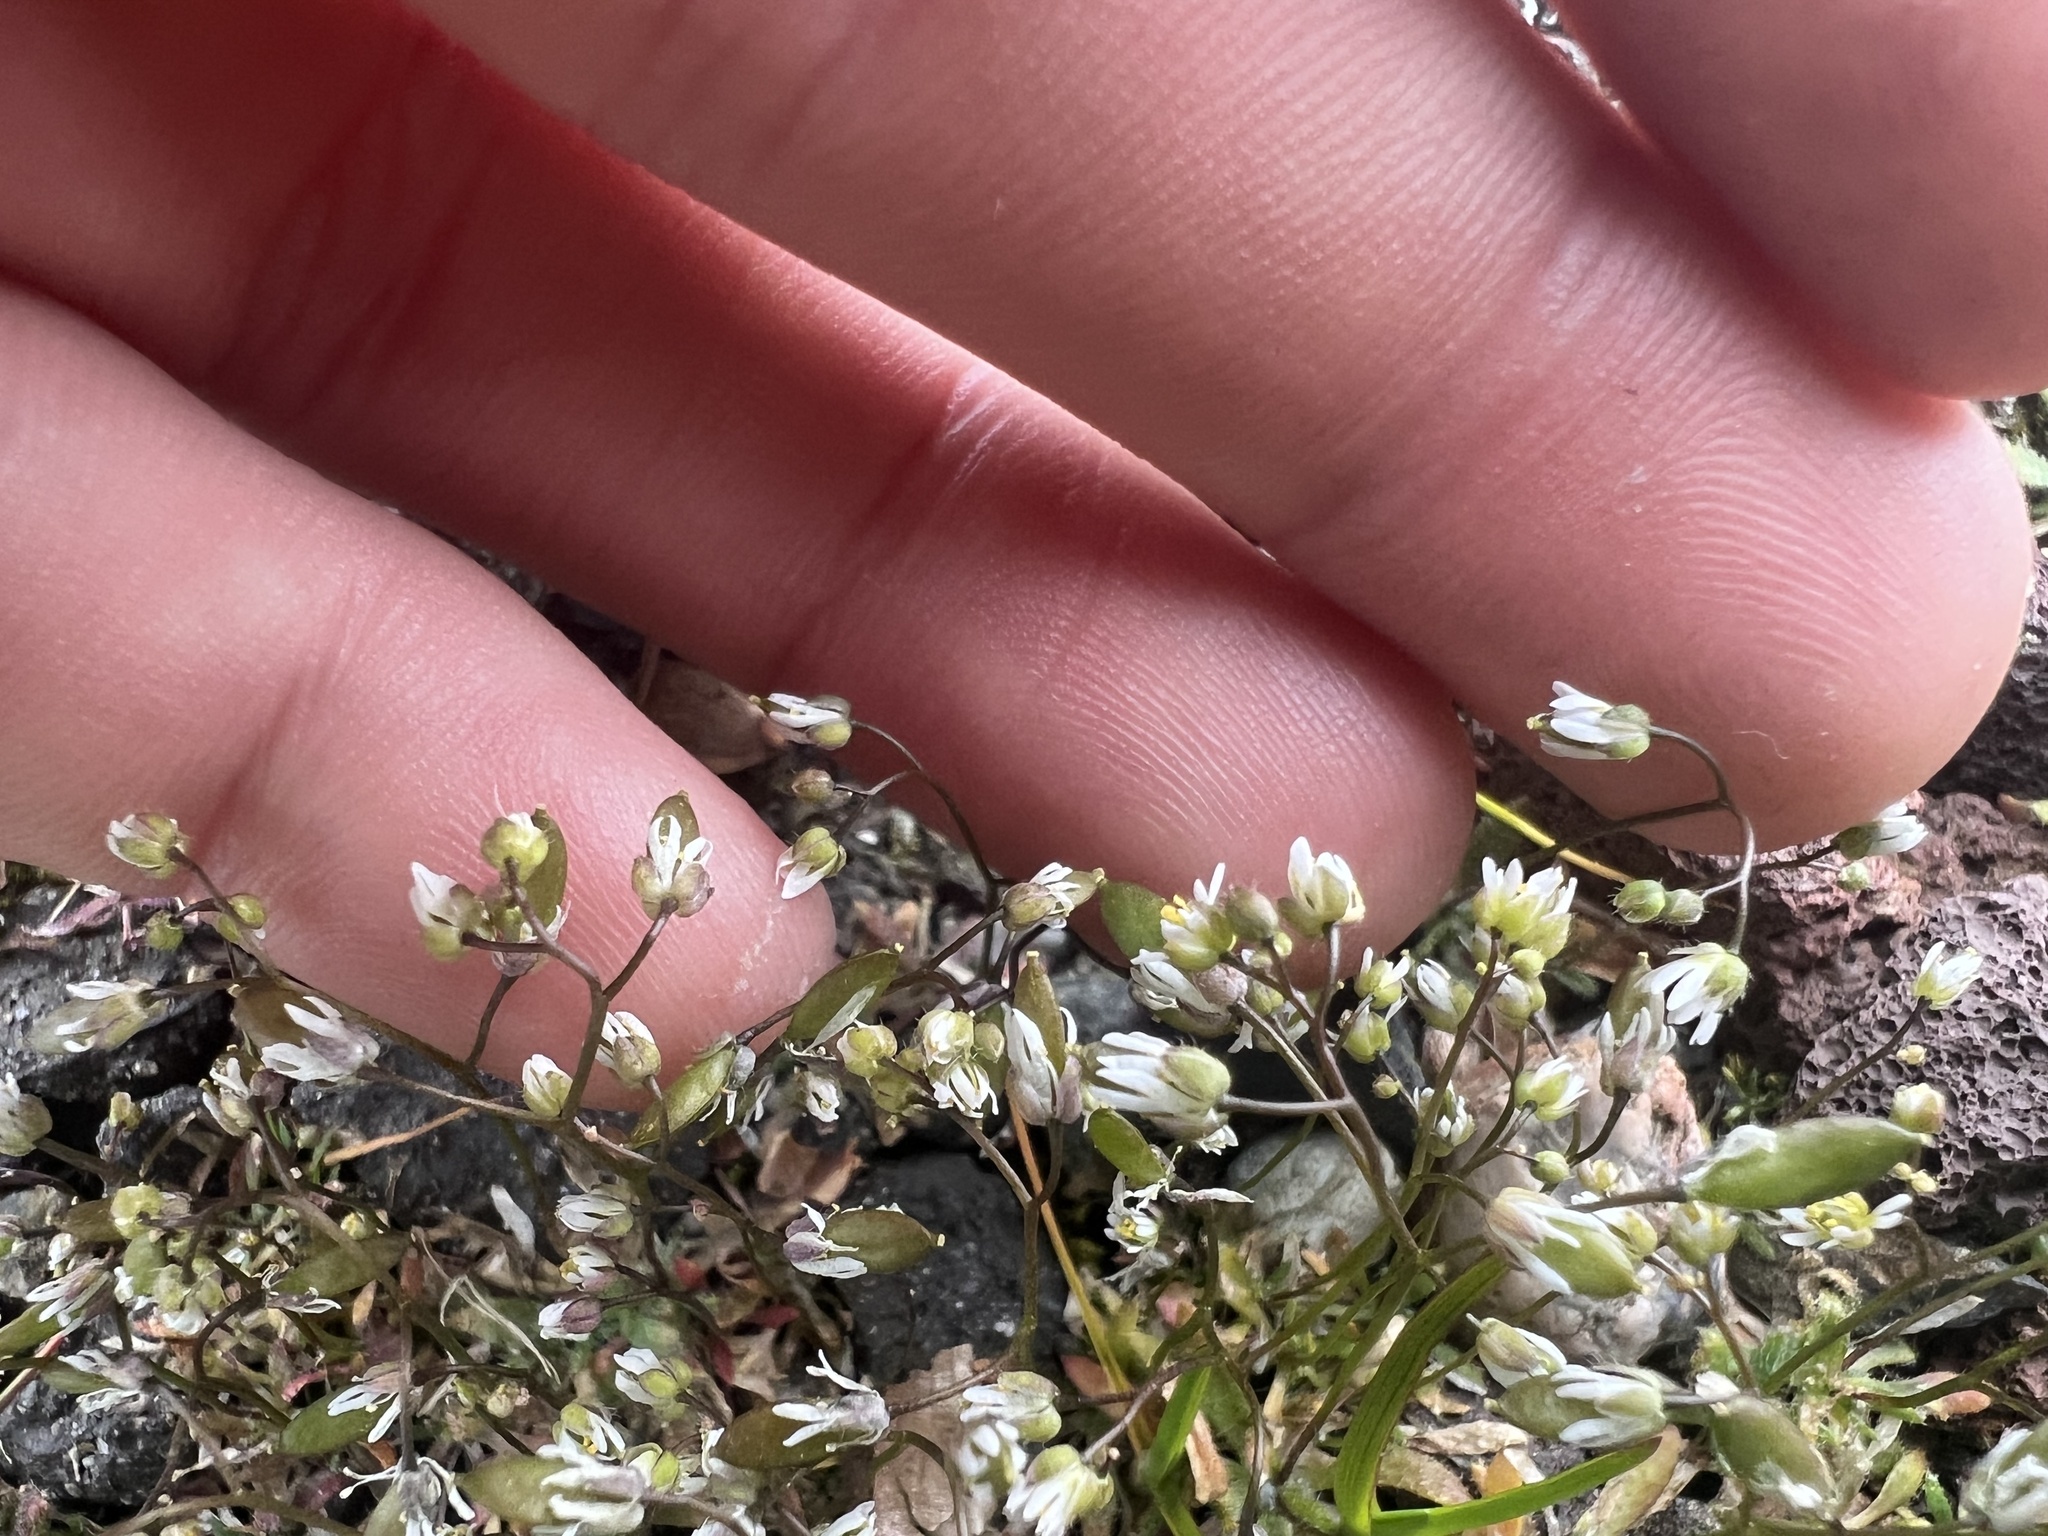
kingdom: Plantae
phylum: Tracheophyta
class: Magnoliopsida
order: Brassicales
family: Brassicaceae
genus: Draba
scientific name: Draba verna
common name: Spring draba
